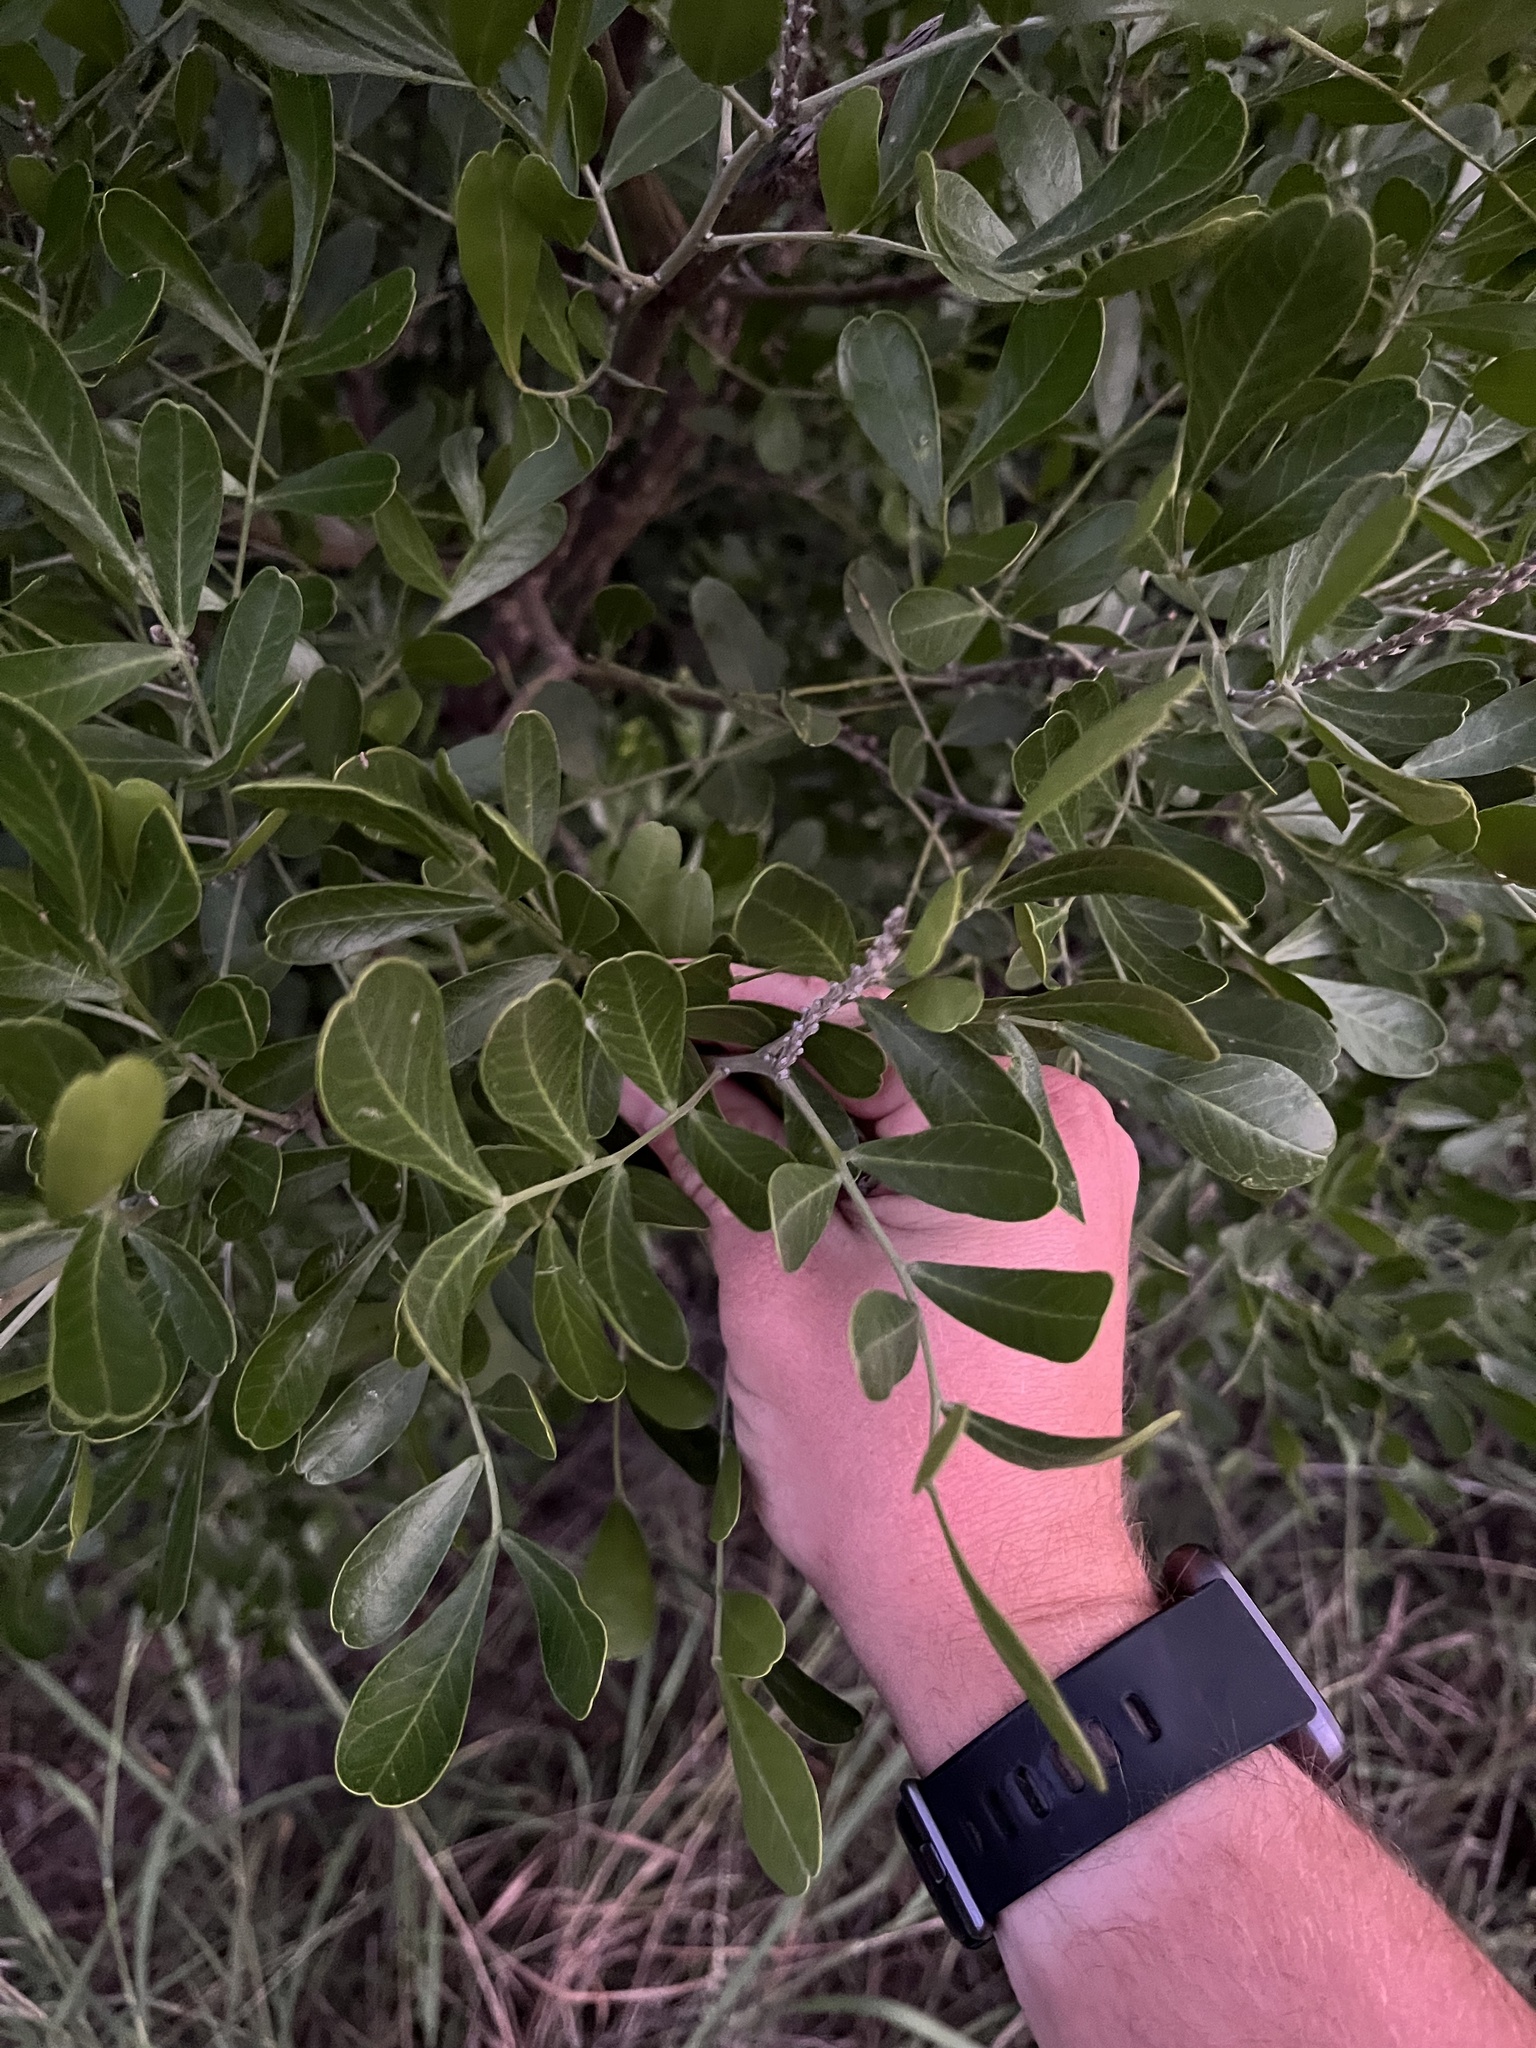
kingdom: Plantae
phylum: Tracheophyta
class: Magnoliopsida
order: Fabales
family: Fabaceae
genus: Dermatophyllum
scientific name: Dermatophyllum secundiflorum
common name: Texas-mountain-laurel
